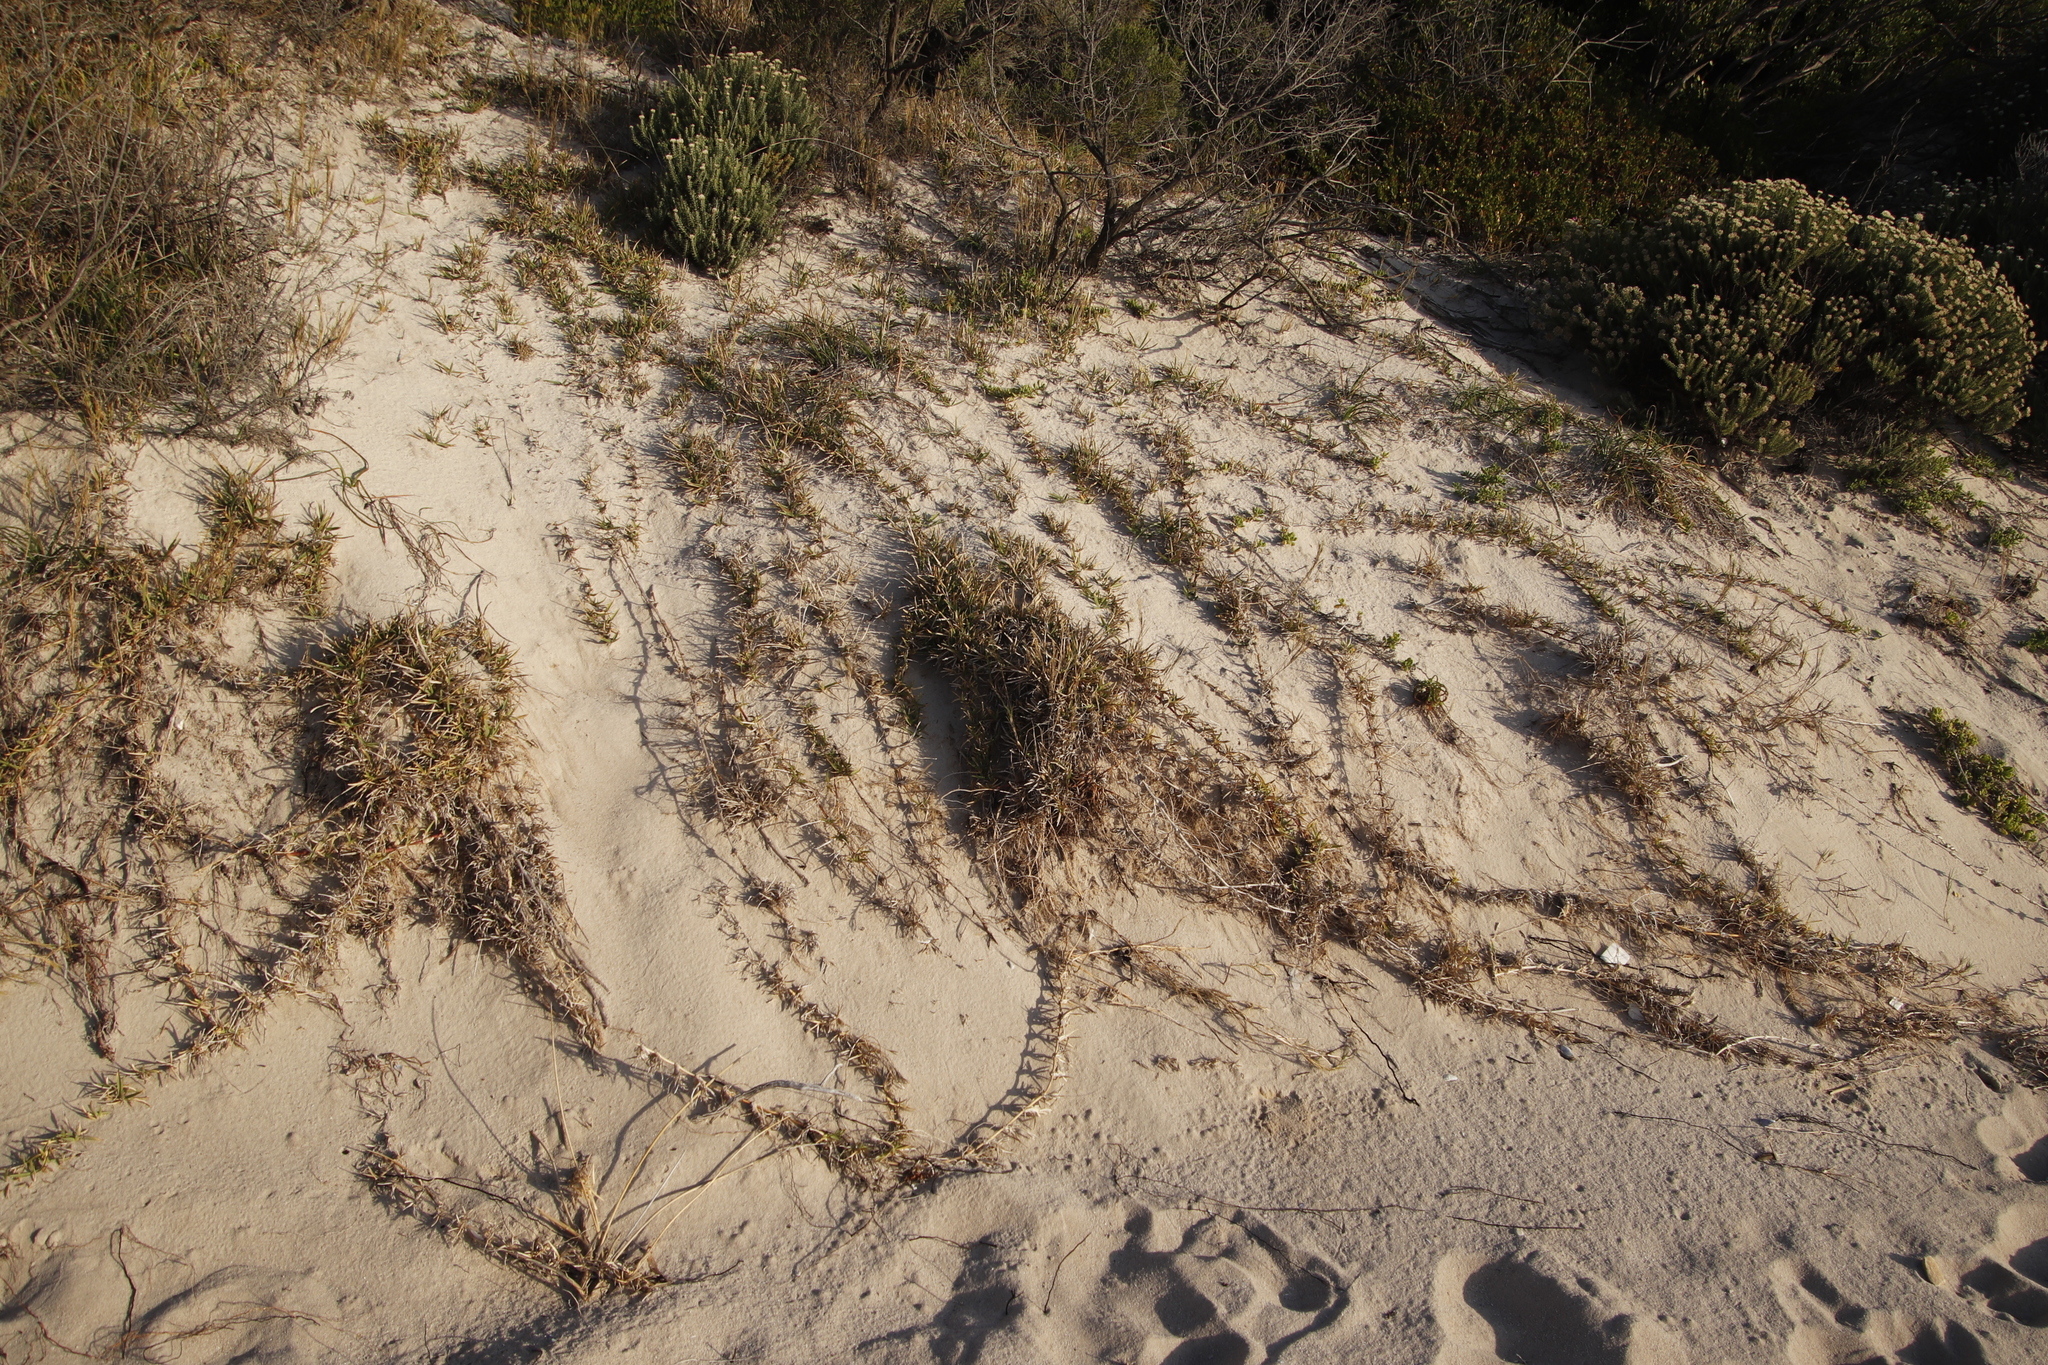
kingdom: Plantae
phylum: Tracheophyta
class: Liliopsida
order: Poales
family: Poaceae
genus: Stenotaphrum
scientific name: Stenotaphrum secundatum
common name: St. augustine grass
